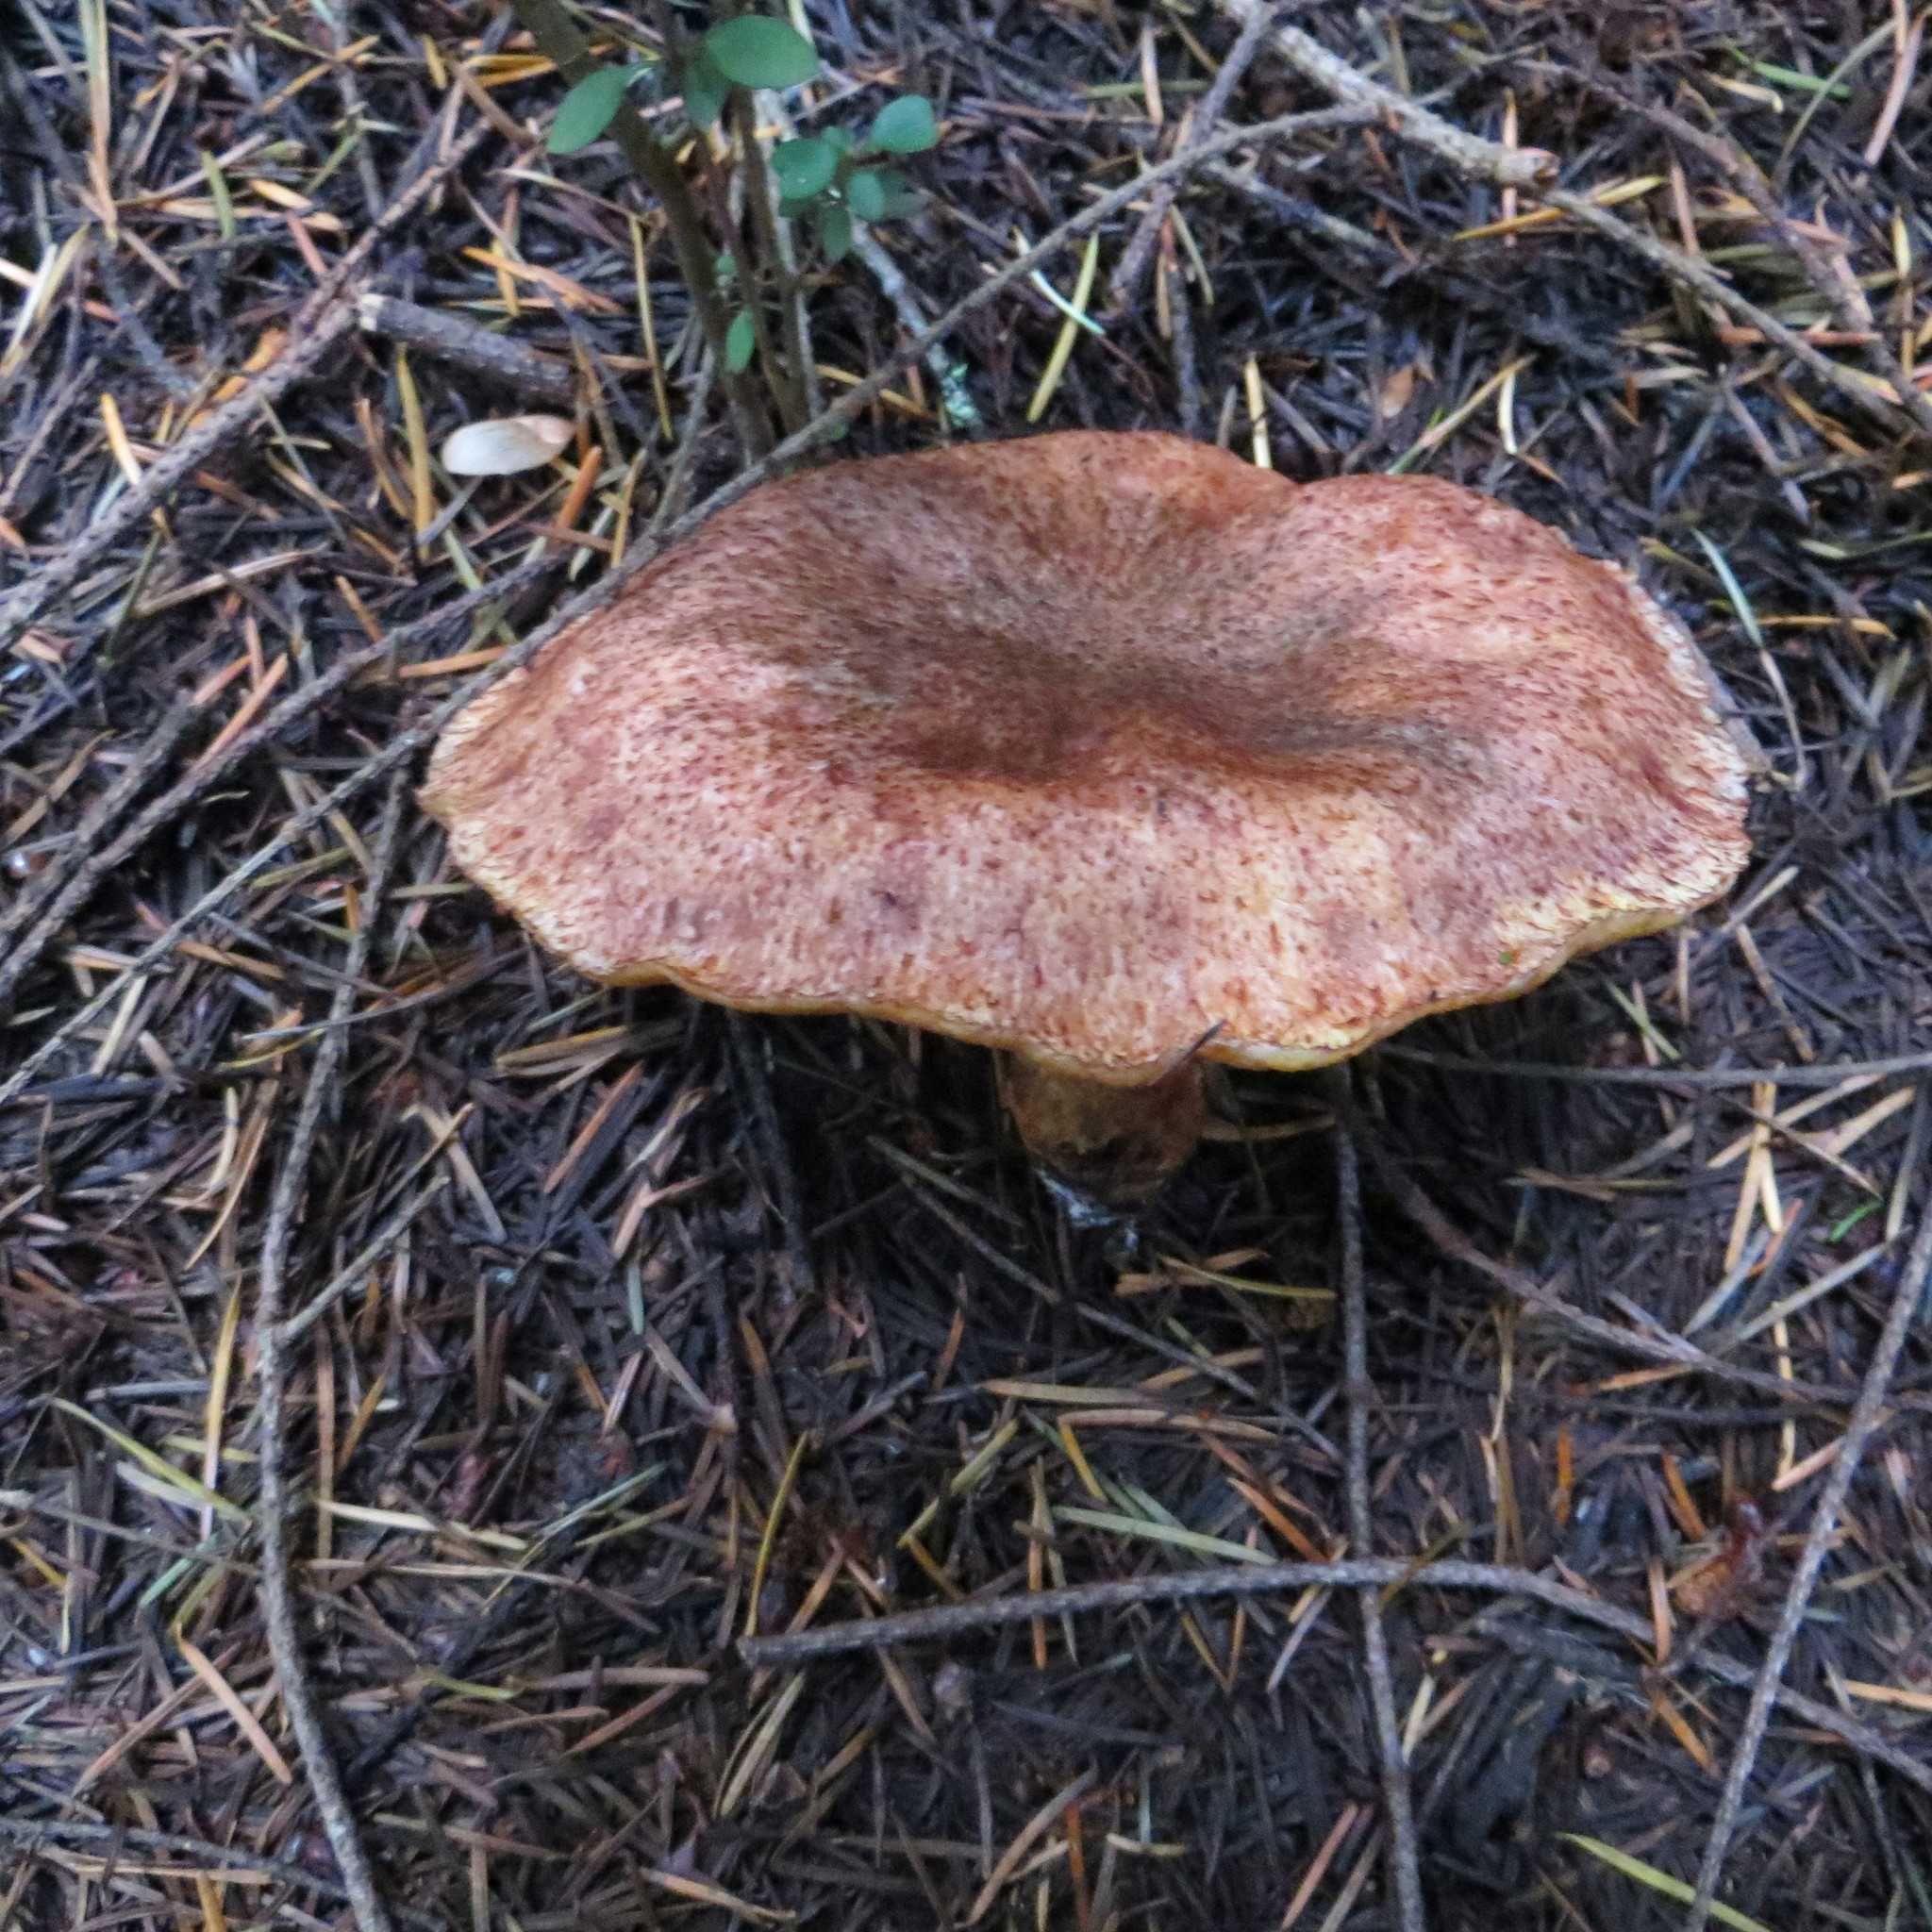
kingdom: Fungi
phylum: Basidiomycota
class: Agaricomycetes
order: Boletales
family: Suillaceae
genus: Suillus
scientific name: Suillus lakei
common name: Western painted suillus
